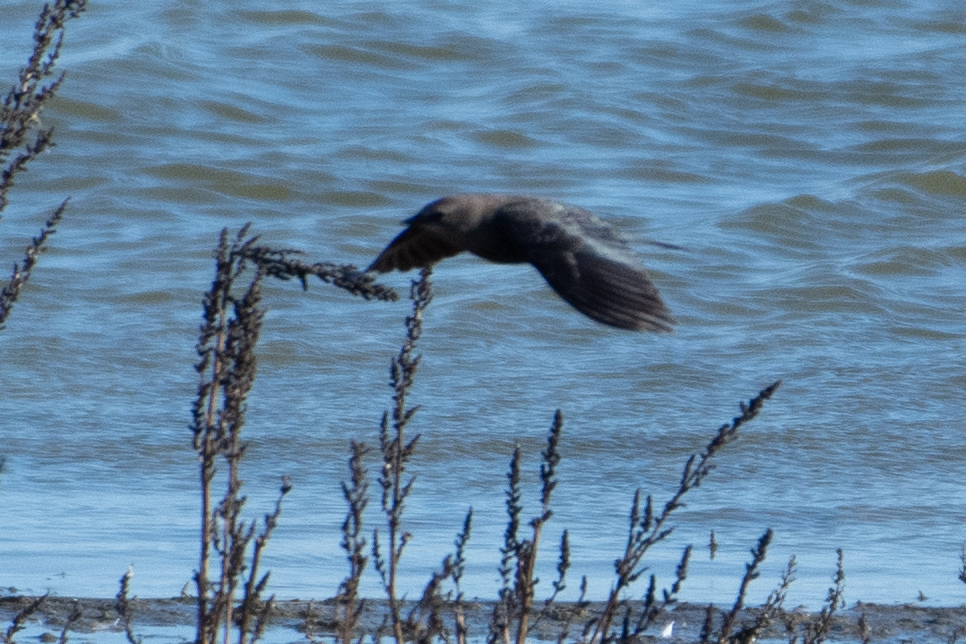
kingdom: Animalia
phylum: Chordata
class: Aves
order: Passeriformes
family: Icteridae
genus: Euphagus
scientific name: Euphagus cyanocephalus
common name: Brewer's blackbird
